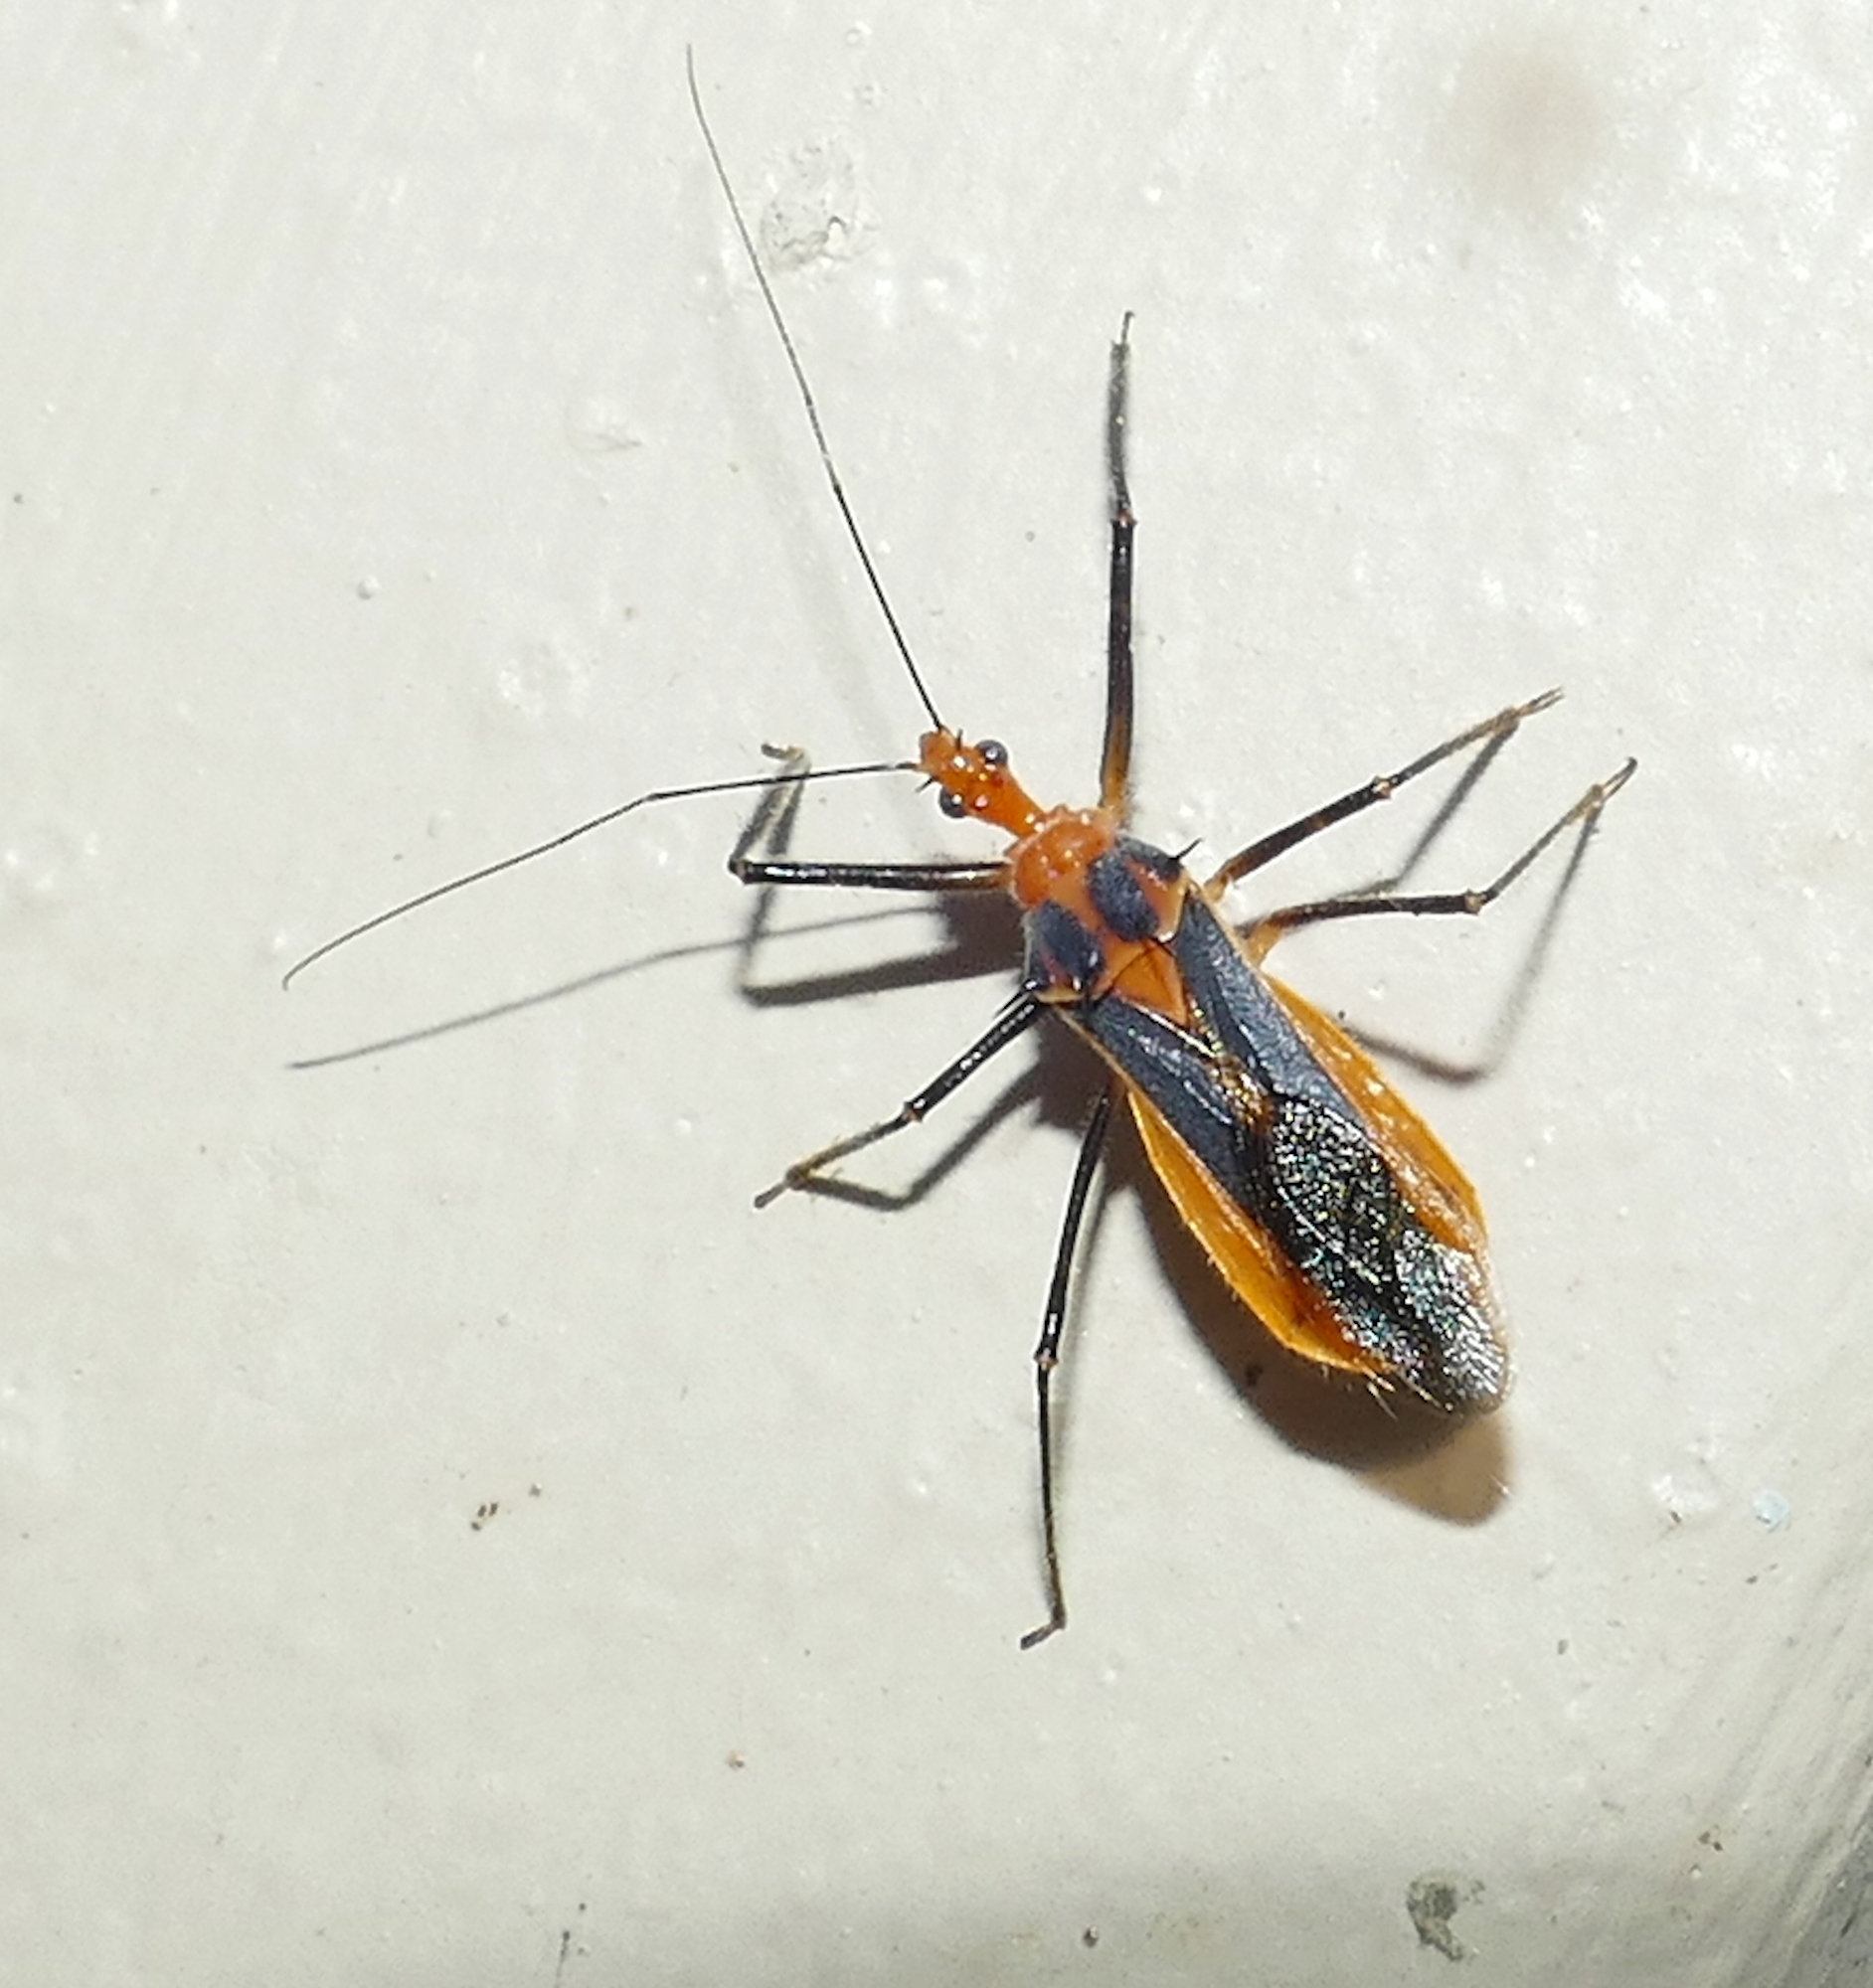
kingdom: Animalia
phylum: Arthropoda
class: Insecta
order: Hemiptera
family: Reduviidae
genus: Repipta
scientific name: Repipta taurus
